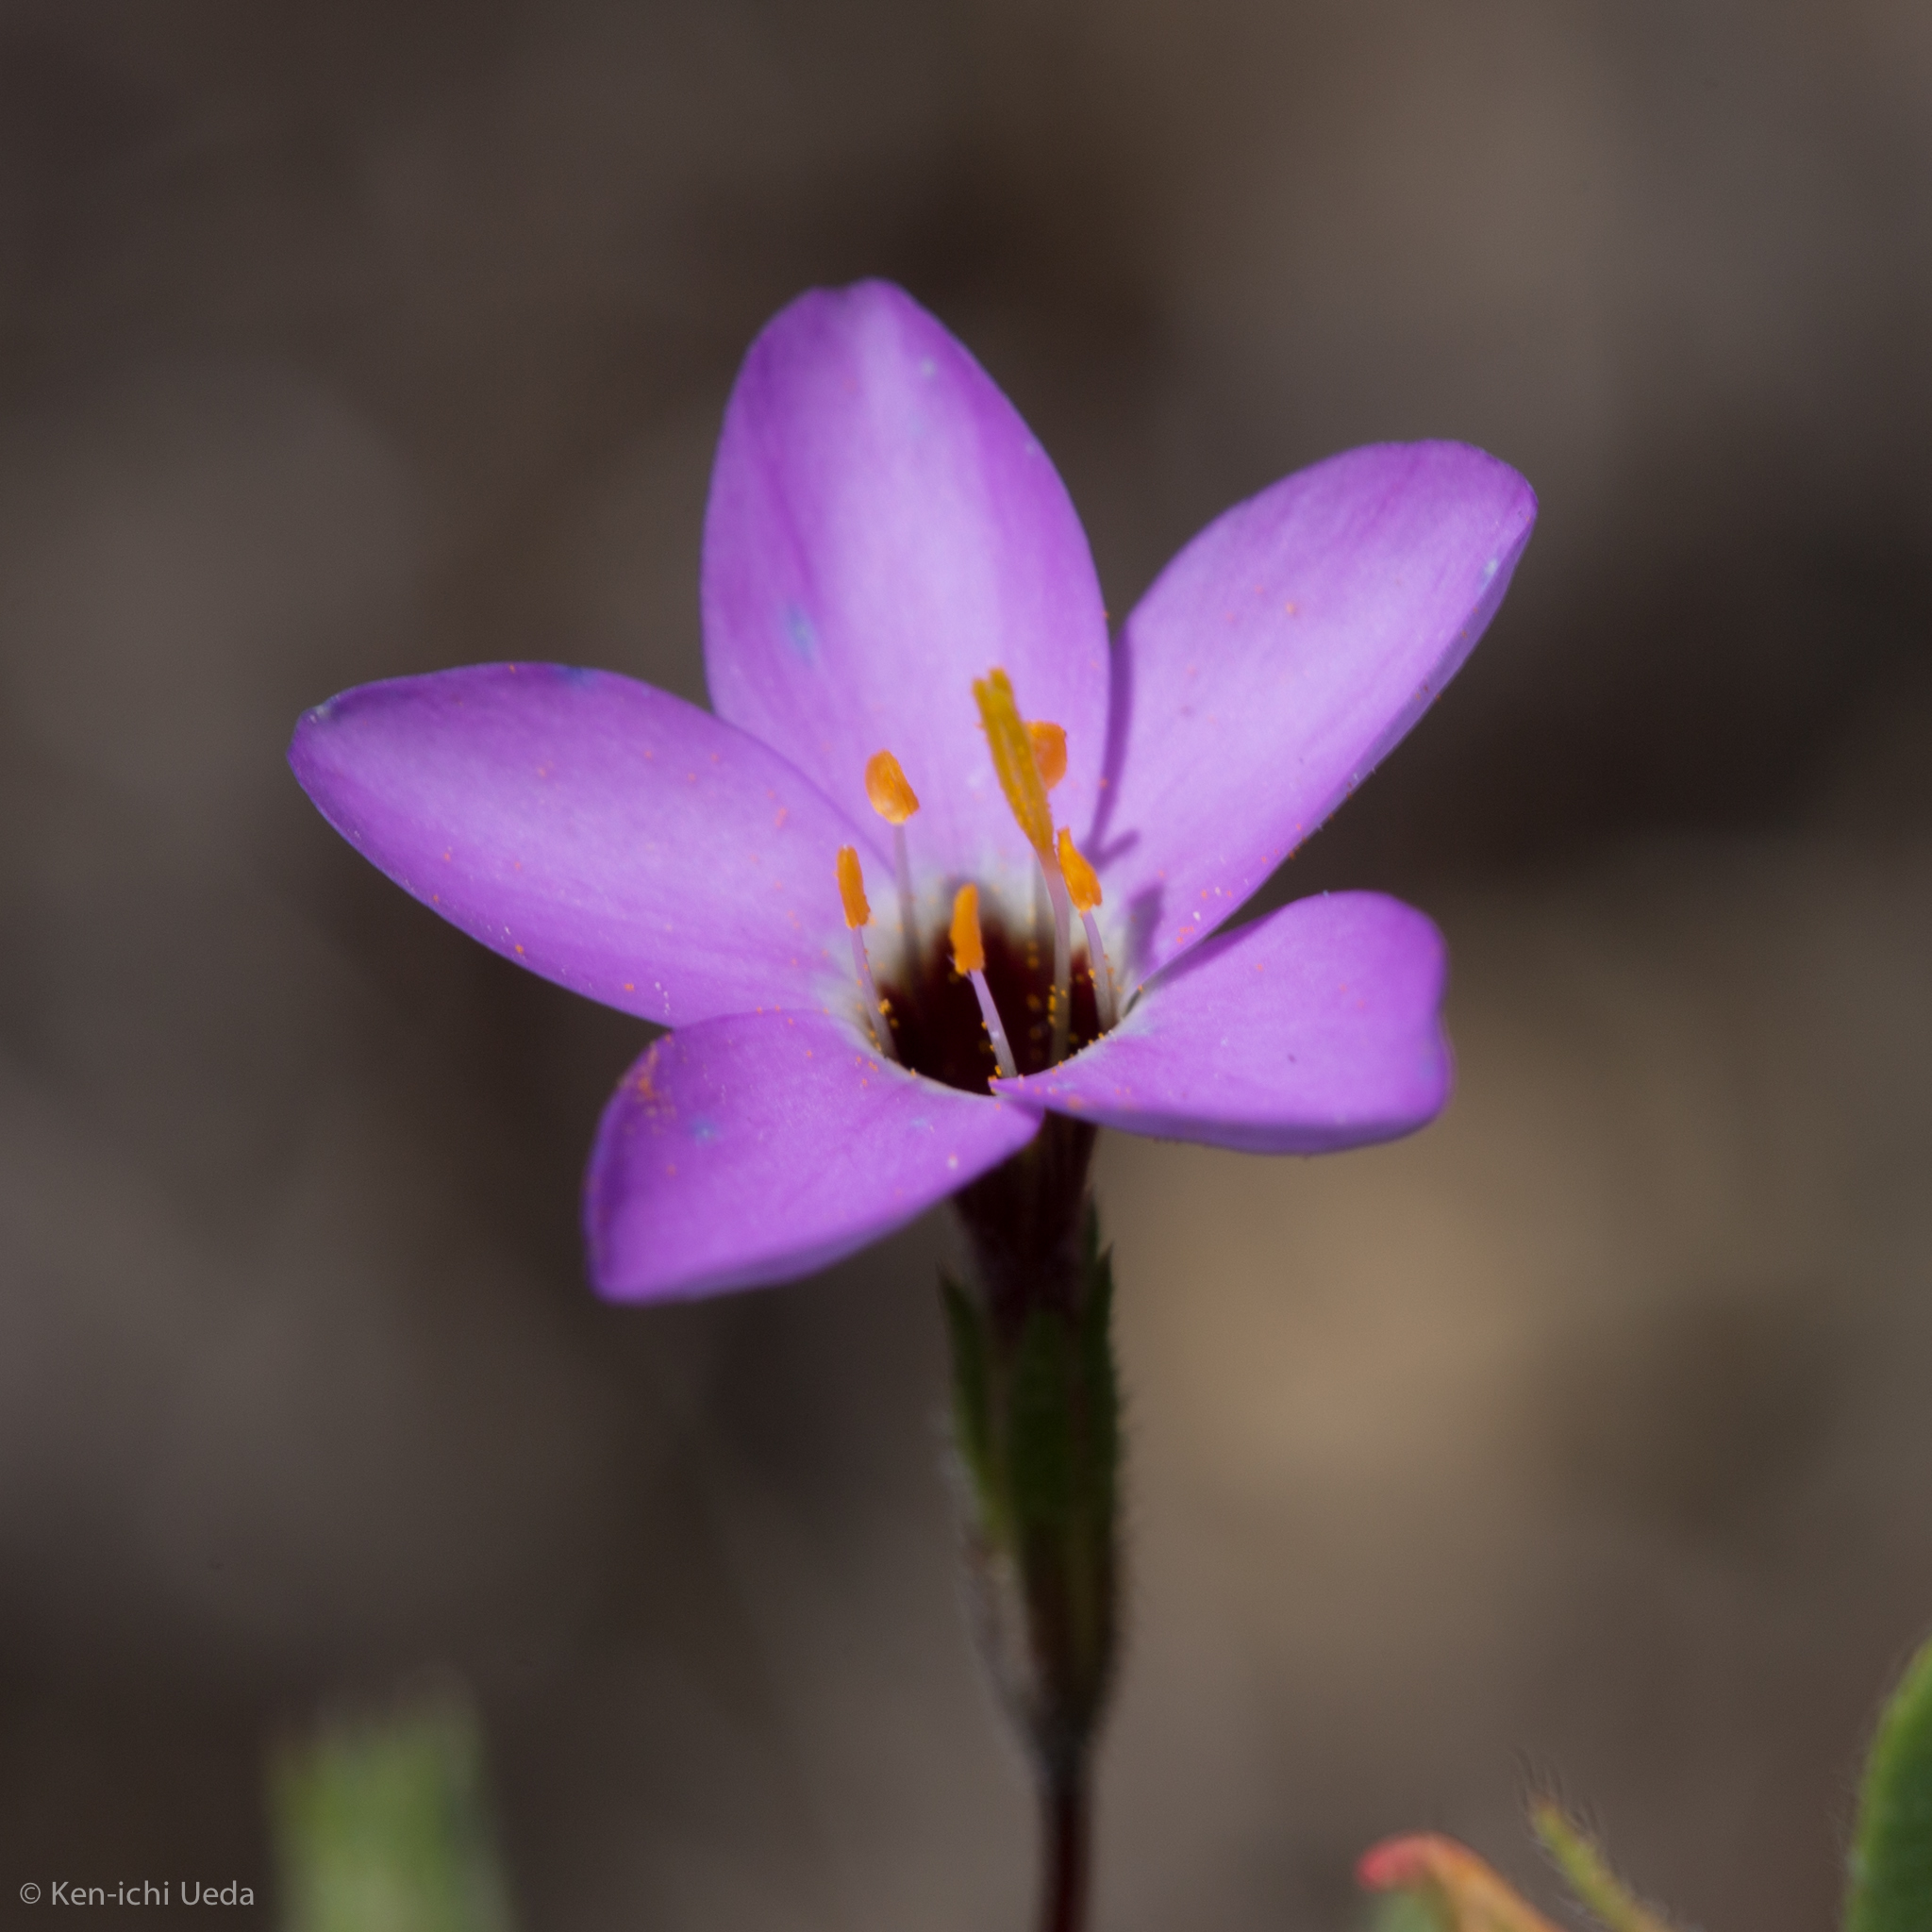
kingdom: Plantae
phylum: Tracheophyta
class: Magnoliopsida
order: Ericales
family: Polemoniaceae
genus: Leptosiphon
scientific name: Leptosiphon ambiguus
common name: Serpentine linanthus
